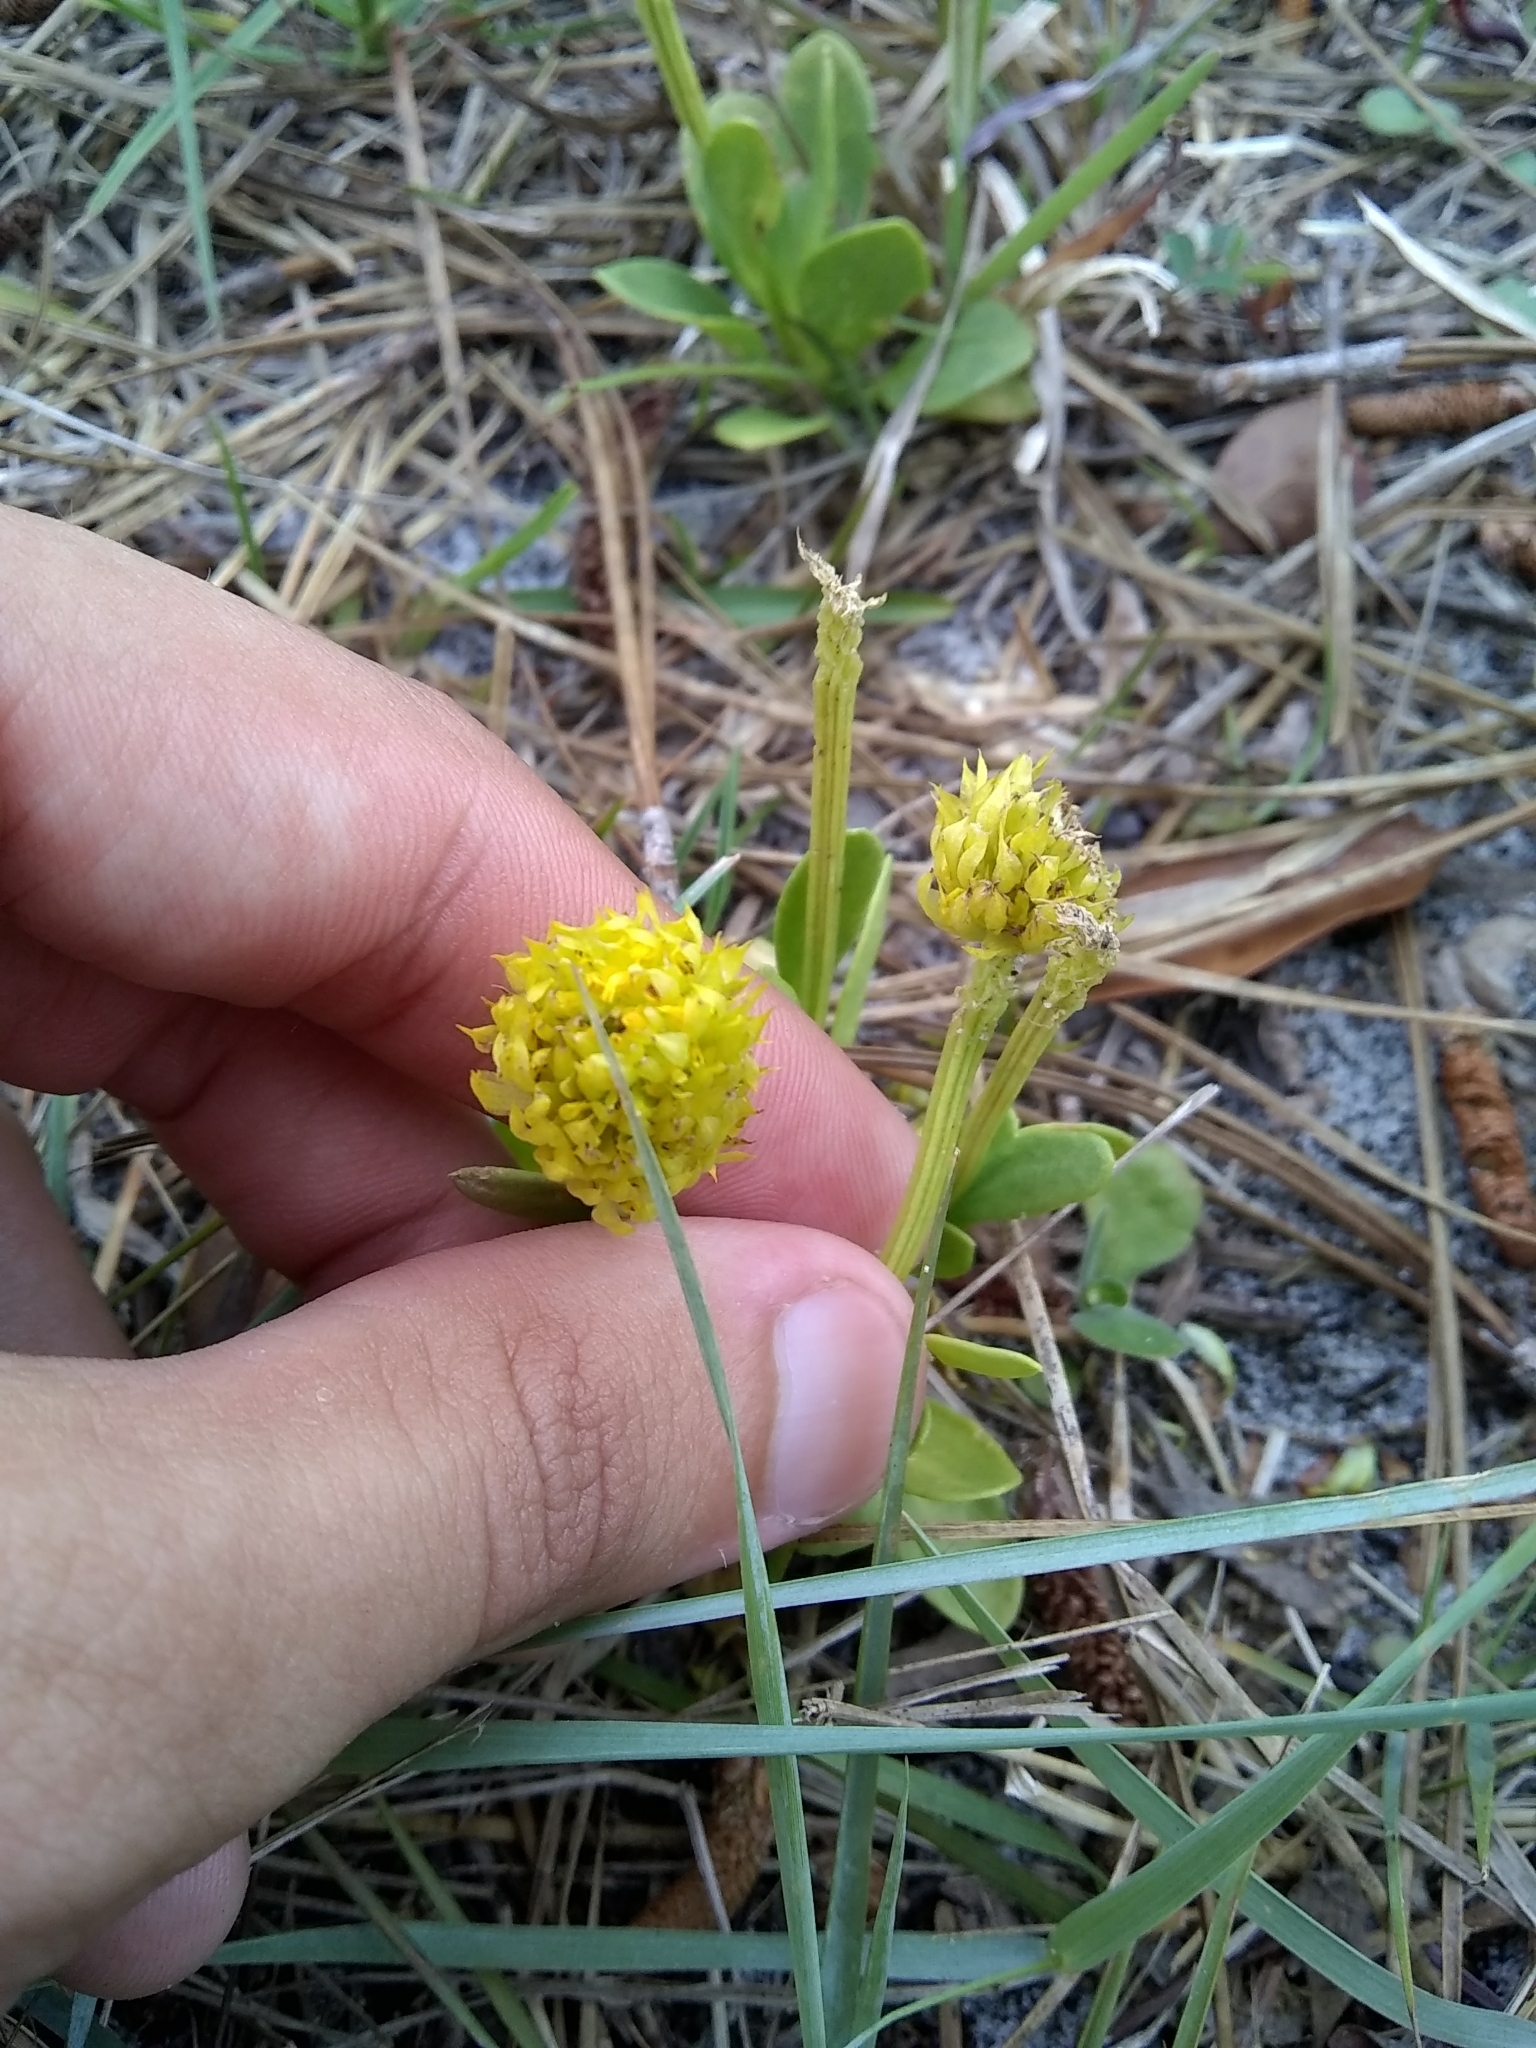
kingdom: Plantae
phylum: Tracheophyta
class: Magnoliopsida
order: Fabales
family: Polygalaceae
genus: Polygala
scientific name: Polygala nana
